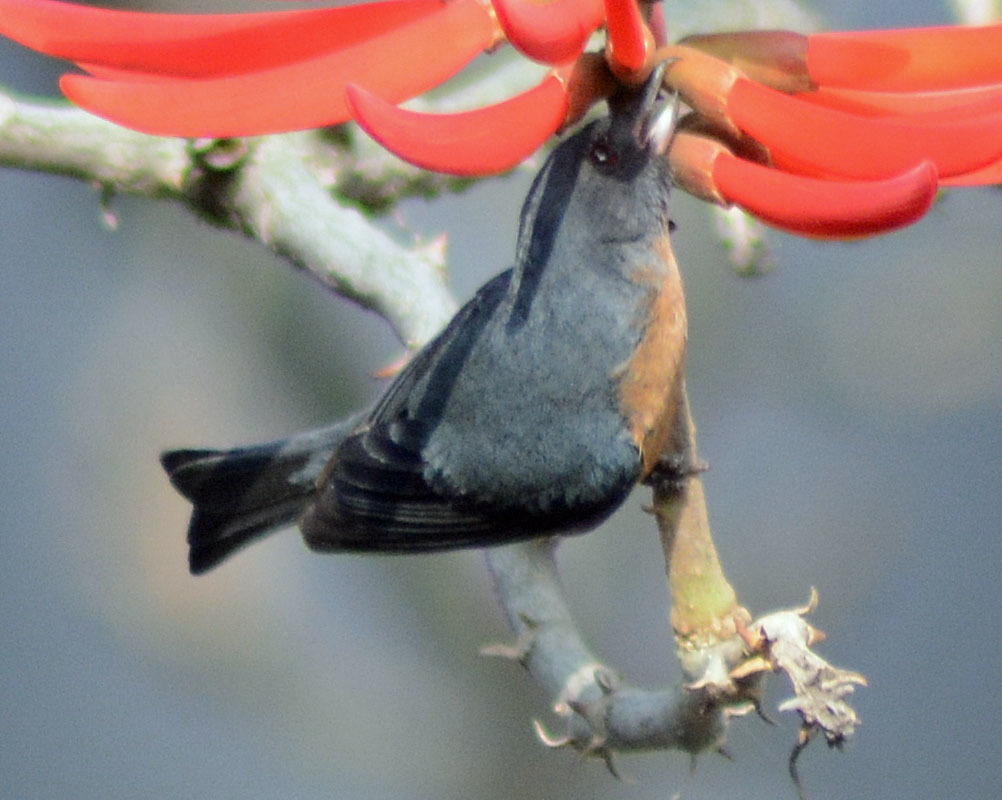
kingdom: Animalia
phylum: Chordata
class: Aves
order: Passeriformes
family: Thraupidae
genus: Diglossa
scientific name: Diglossa baritula
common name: Cinnamon-bellied flowerpiercer
